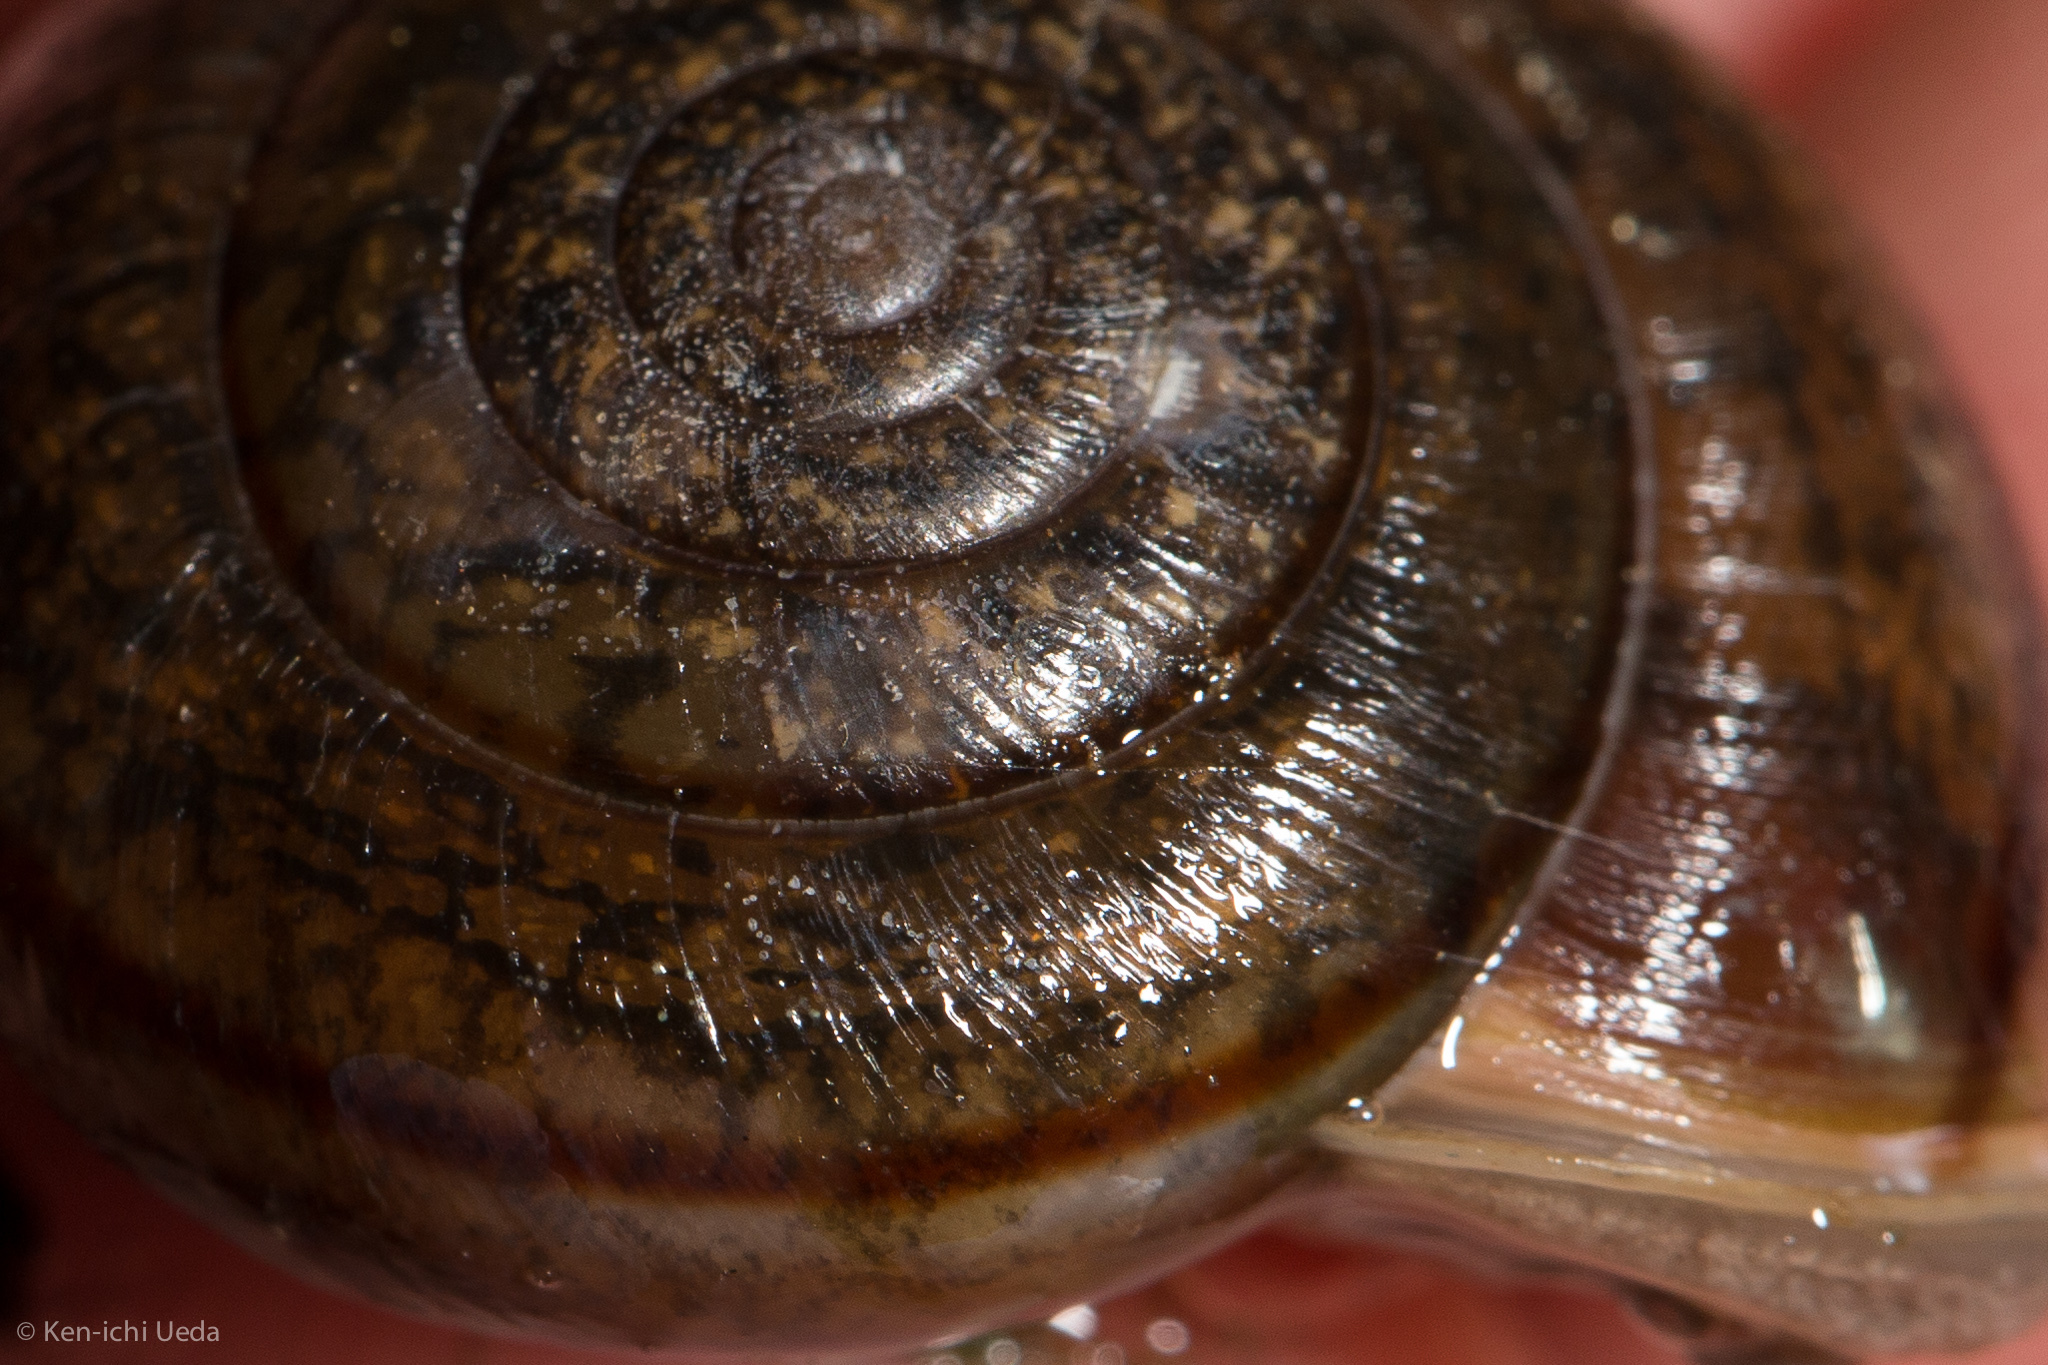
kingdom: Animalia
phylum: Mollusca
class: Gastropoda
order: Stylommatophora
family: Xanthonychidae
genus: Helminthoglypta
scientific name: Helminthoglypta contracostae
